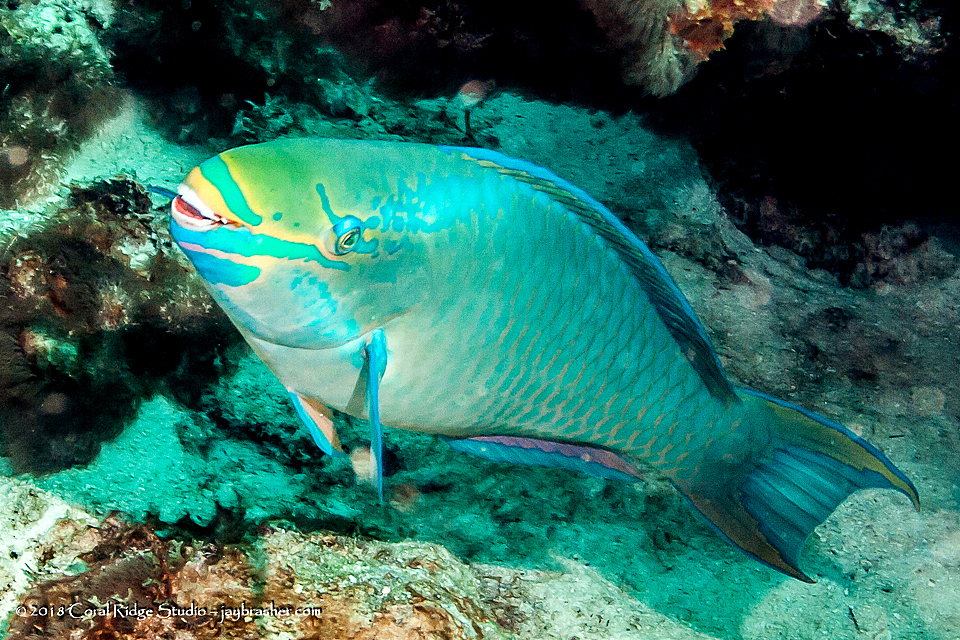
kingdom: Animalia
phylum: Chordata
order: Perciformes
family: Scaridae
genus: Scarus
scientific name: Scarus vetula
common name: Queen parrotfish
